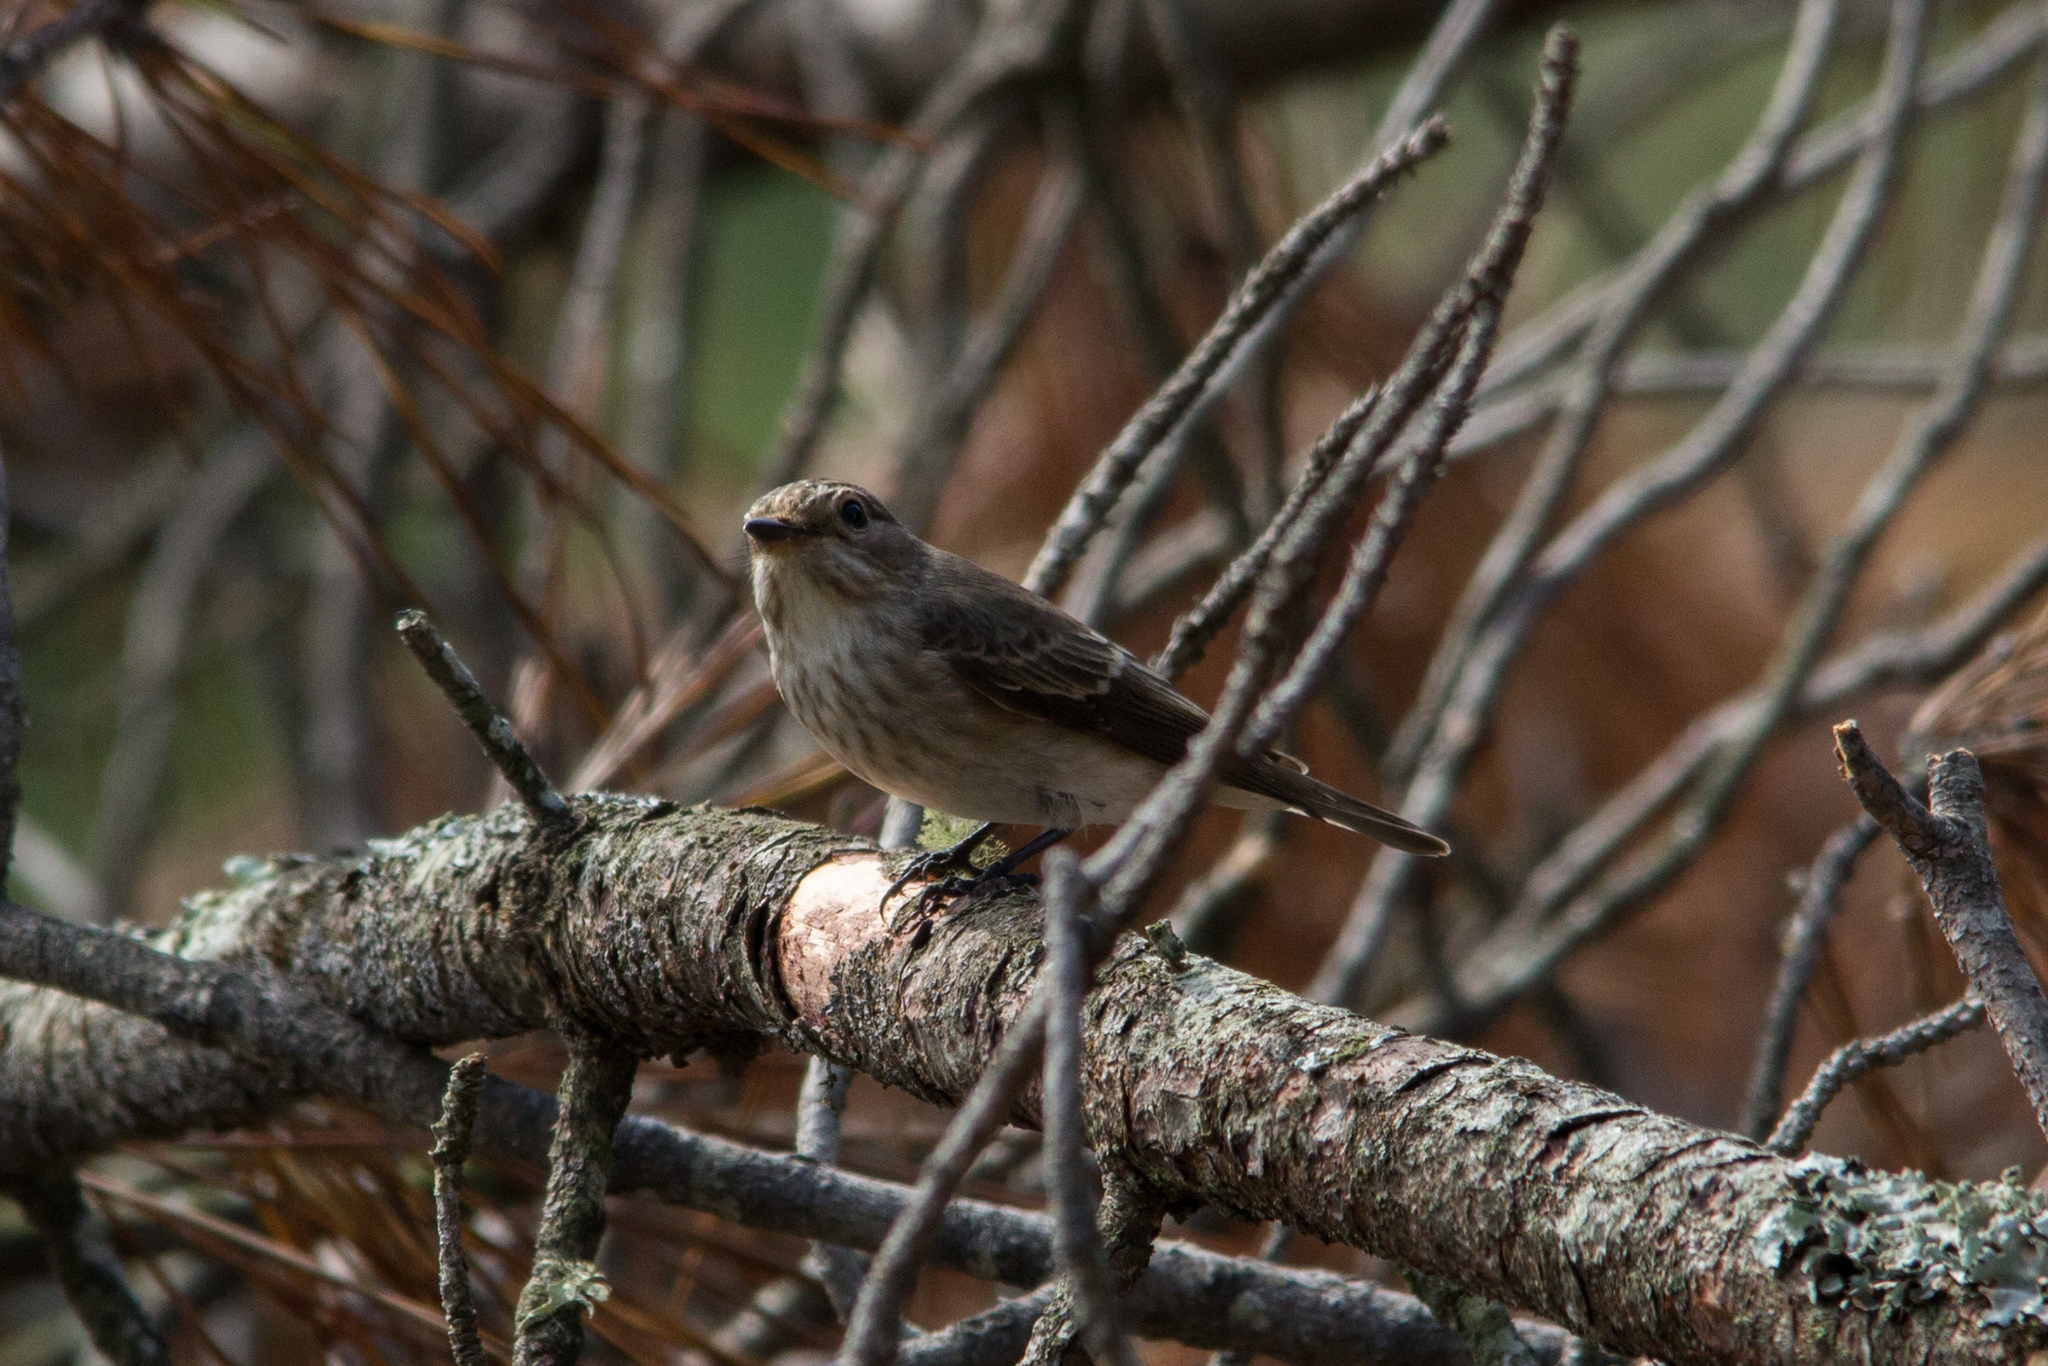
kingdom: Animalia
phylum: Chordata
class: Aves
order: Passeriformes
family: Muscicapidae
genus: Muscicapa
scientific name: Muscicapa striata
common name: Spotted flycatcher
